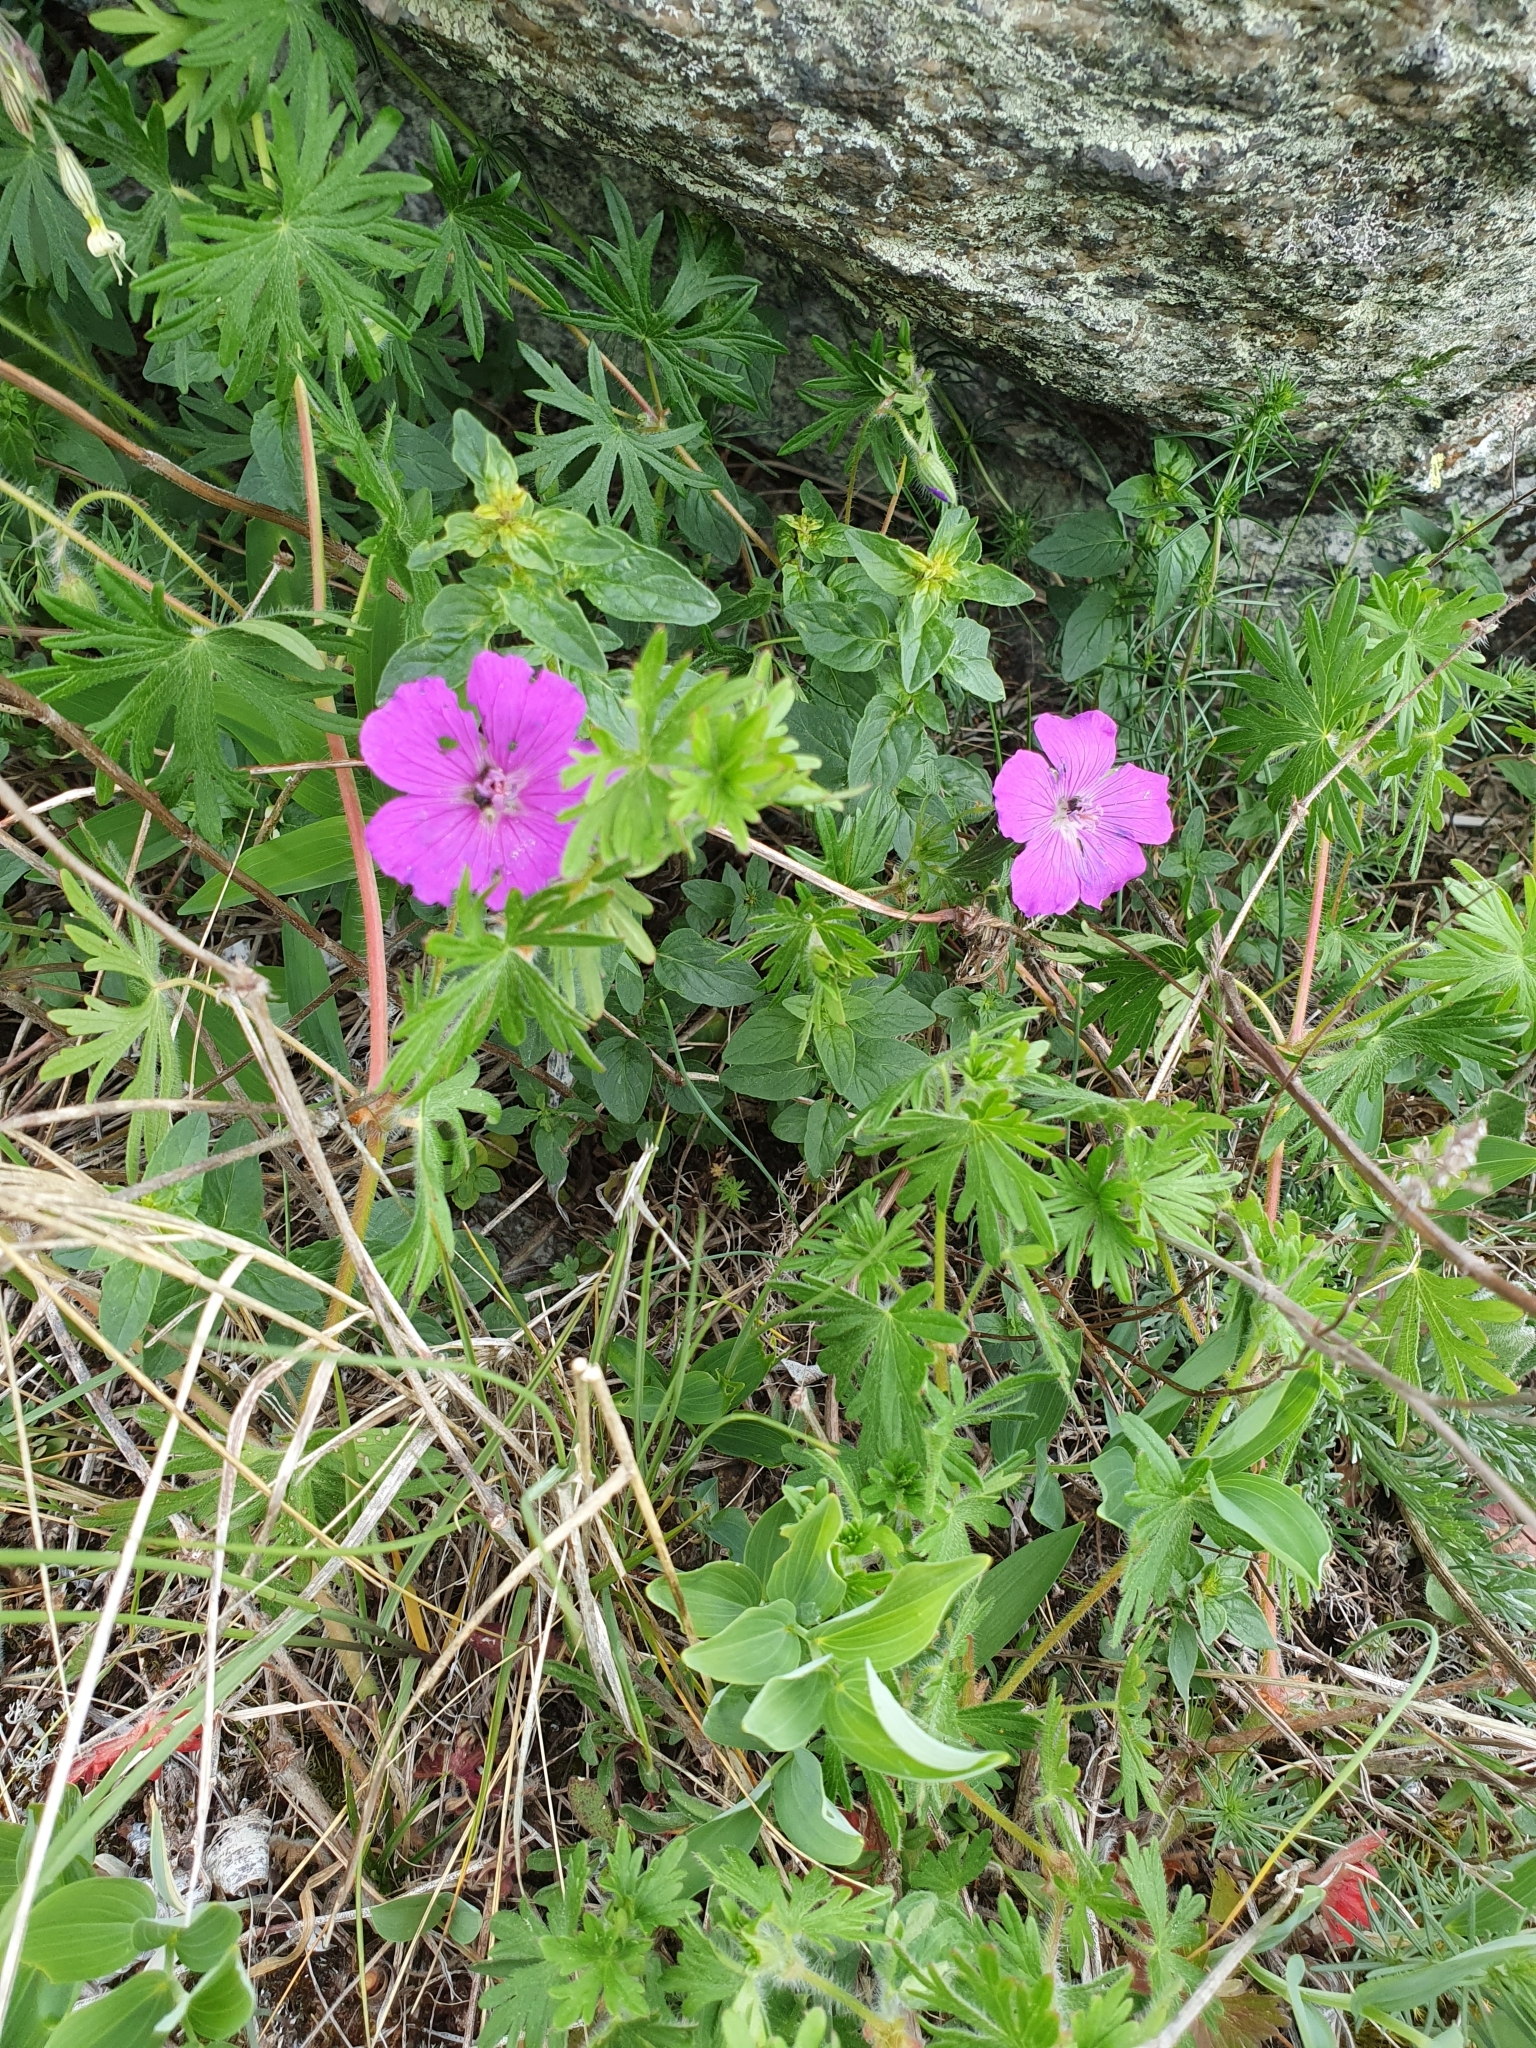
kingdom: Plantae
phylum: Tracheophyta
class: Magnoliopsida
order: Geraniales
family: Geraniaceae
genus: Geranium
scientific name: Geranium sanguineum
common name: Bloody crane's-bill
